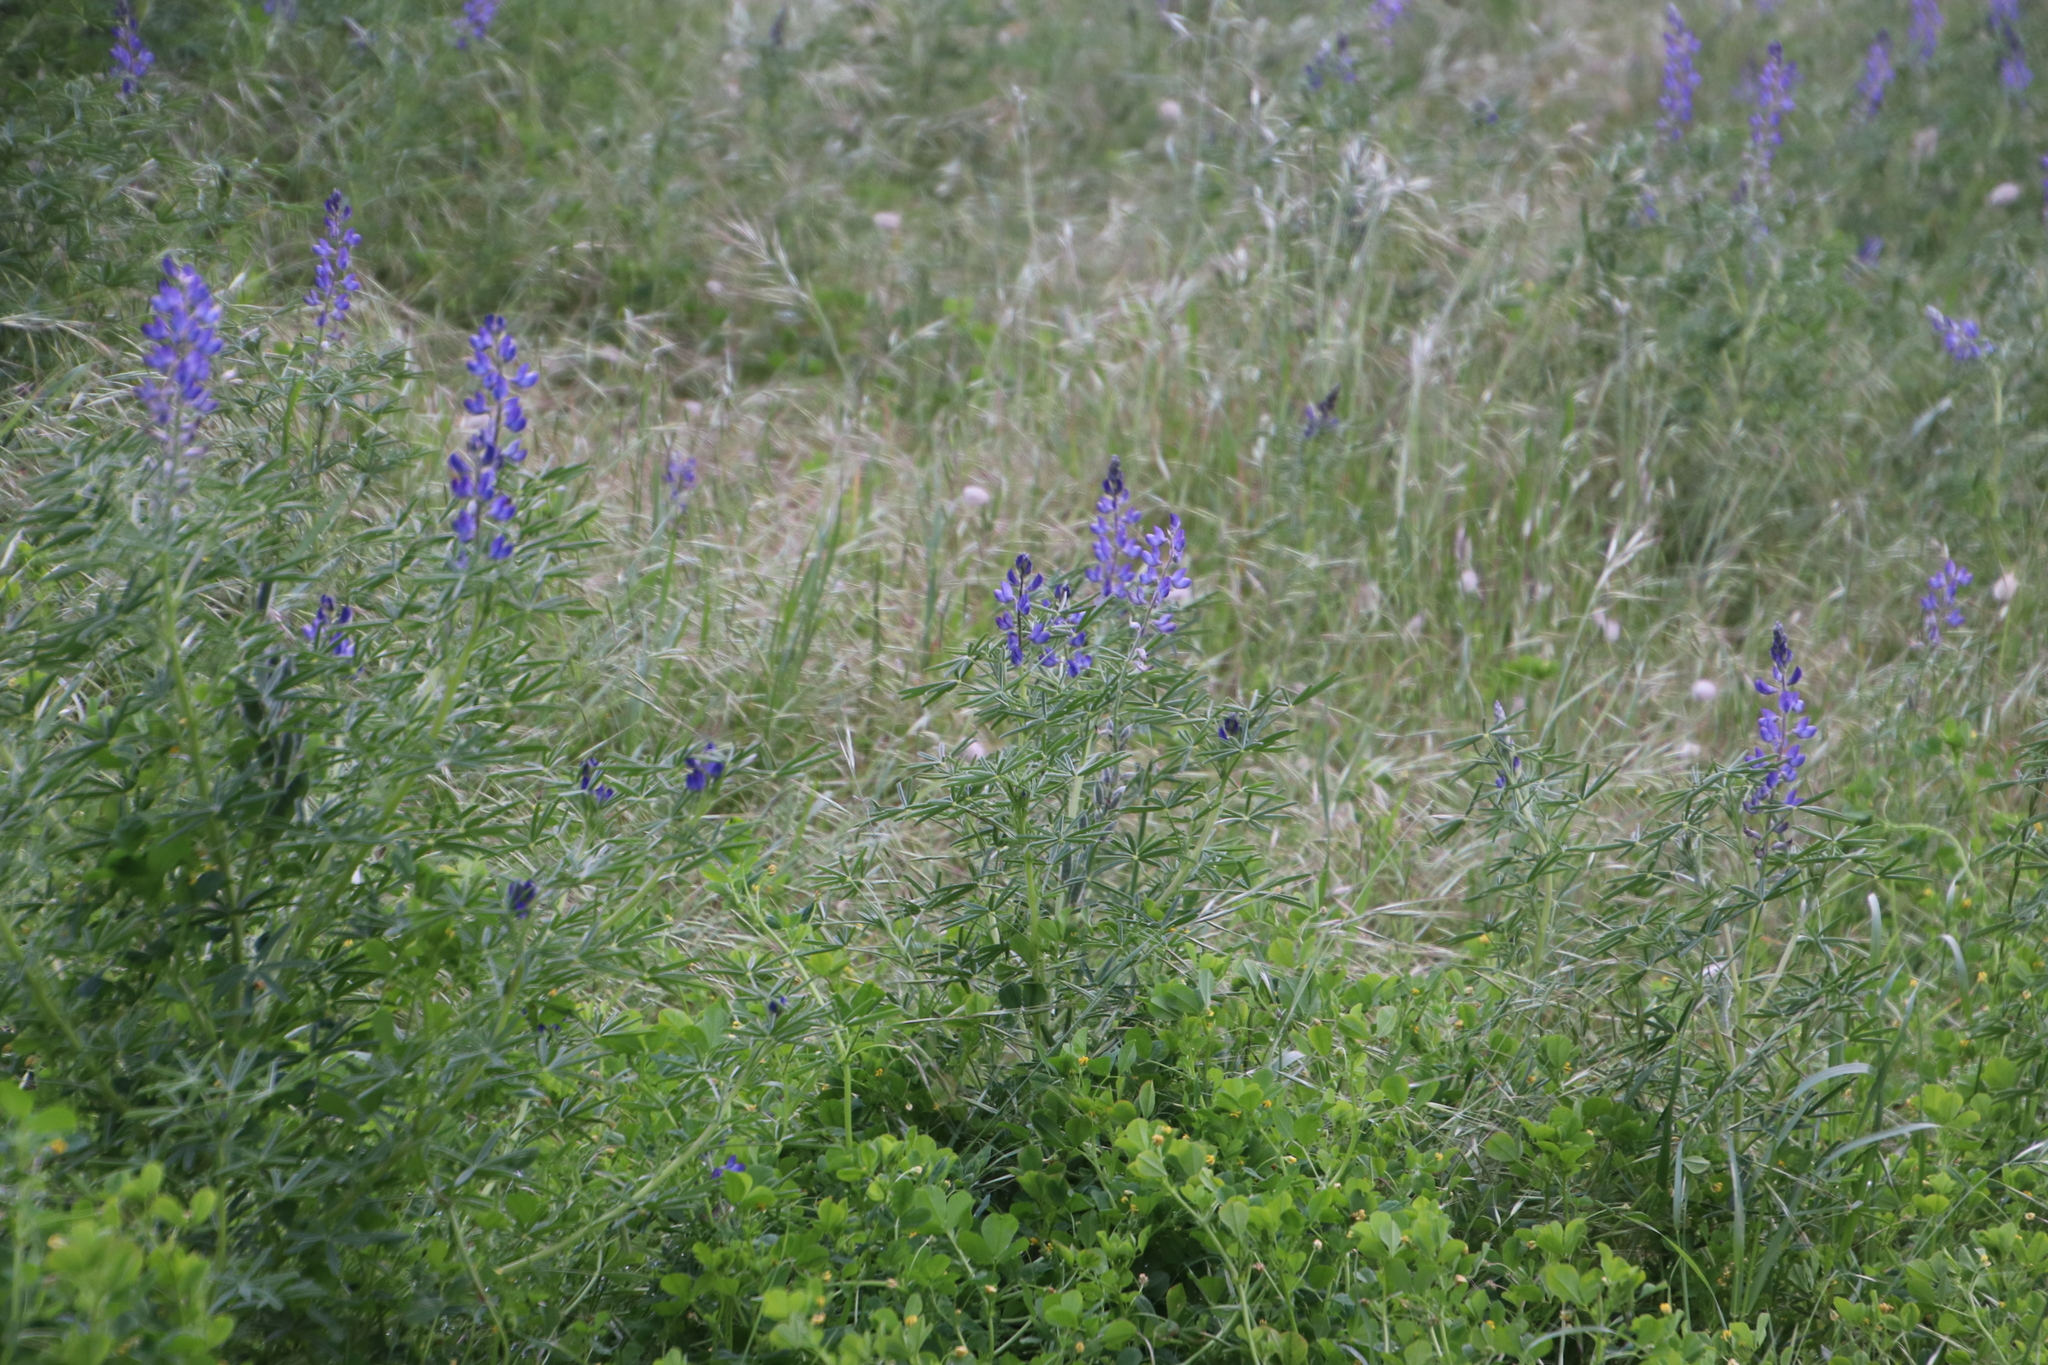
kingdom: Plantae
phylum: Tracheophyta
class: Magnoliopsida
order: Fabales
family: Fabaceae
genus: Lupinus
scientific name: Lupinus angustifolius
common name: Narrow-leaved lupin
